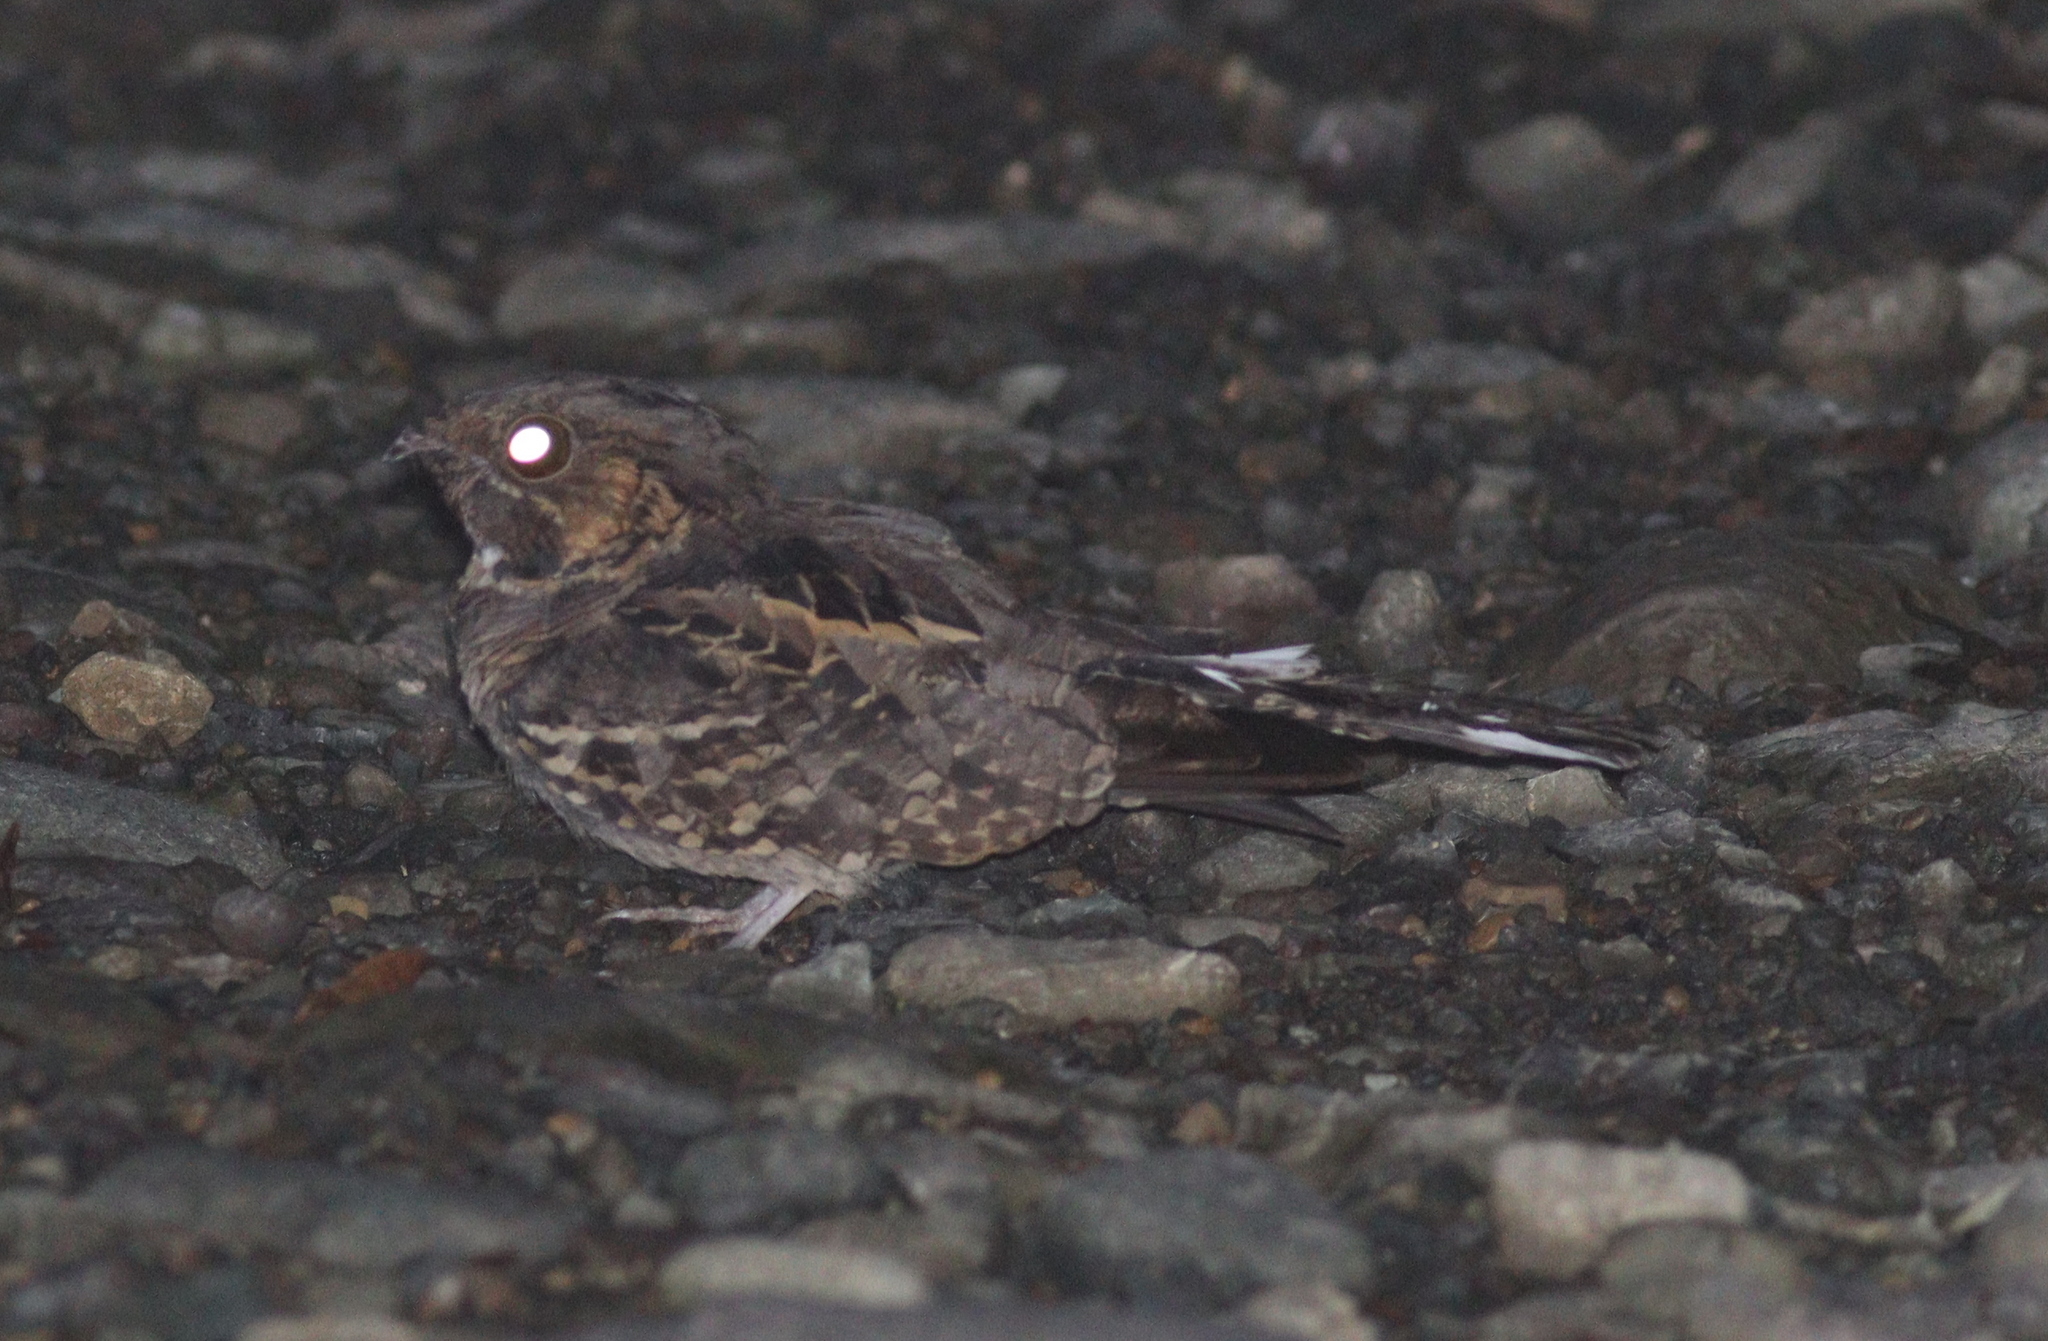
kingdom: Animalia
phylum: Chordata
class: Aves
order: Caprimulgiformes
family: Caprimulgidae
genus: Nyctidromus
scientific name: Nyctidromus albicollis
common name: Pauraque
